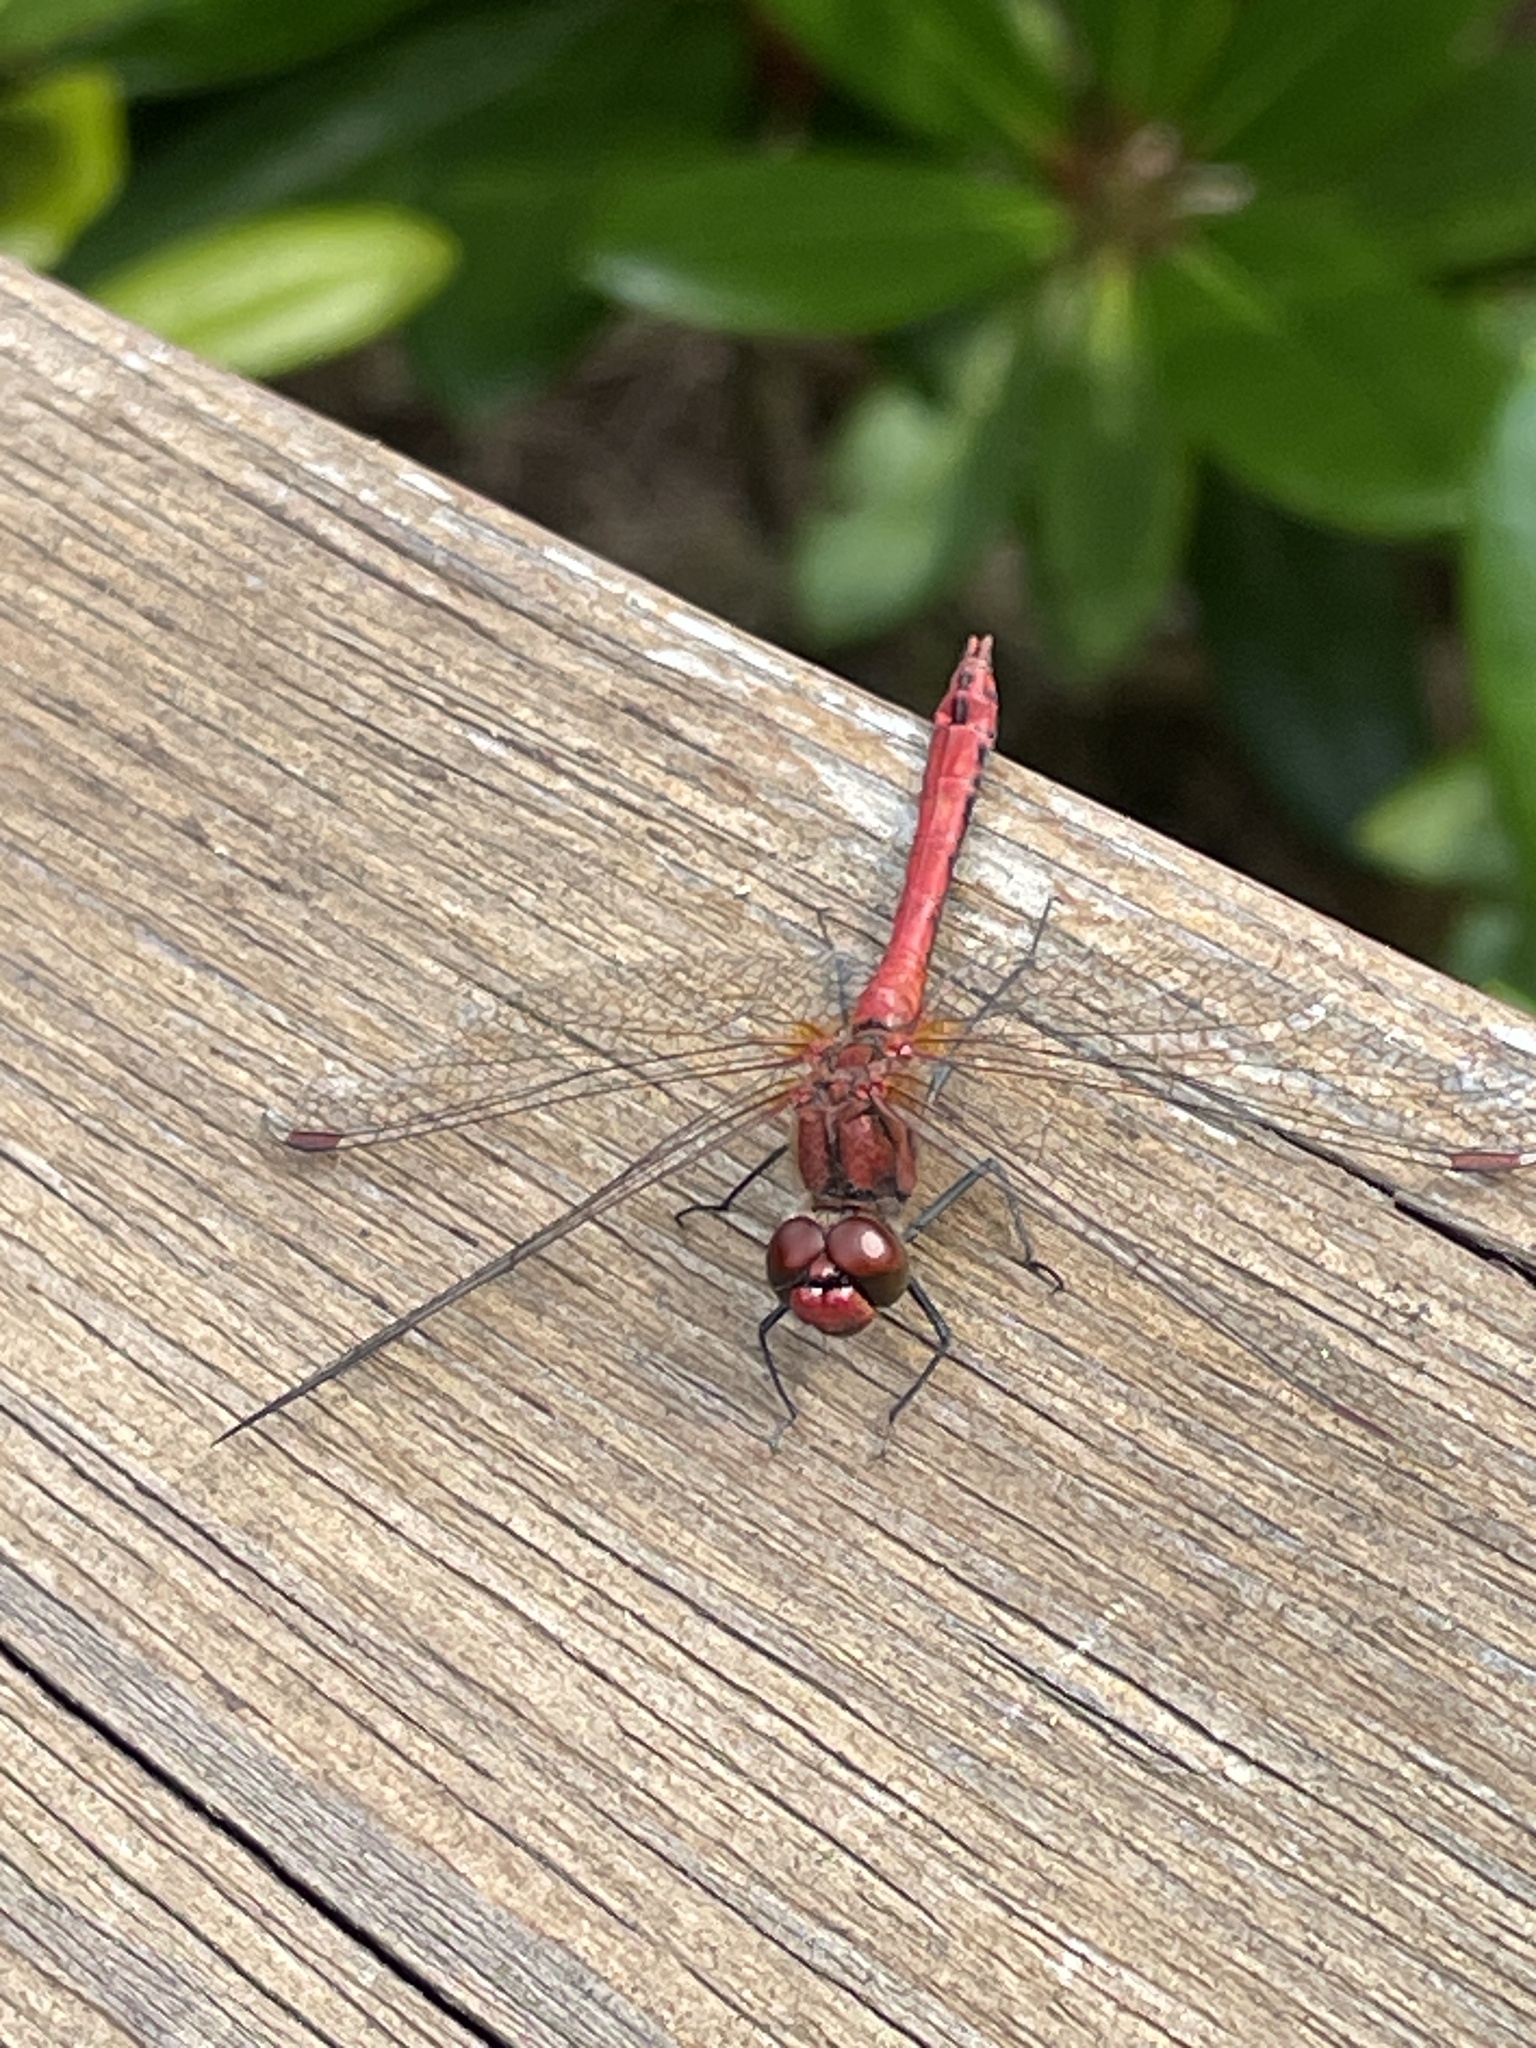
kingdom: Animalia
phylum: Arthropoda
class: Insecta
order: Odonata
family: Libellulidae
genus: Sympetrum
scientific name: Sympetrum sanguineum
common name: Ruddy darter
